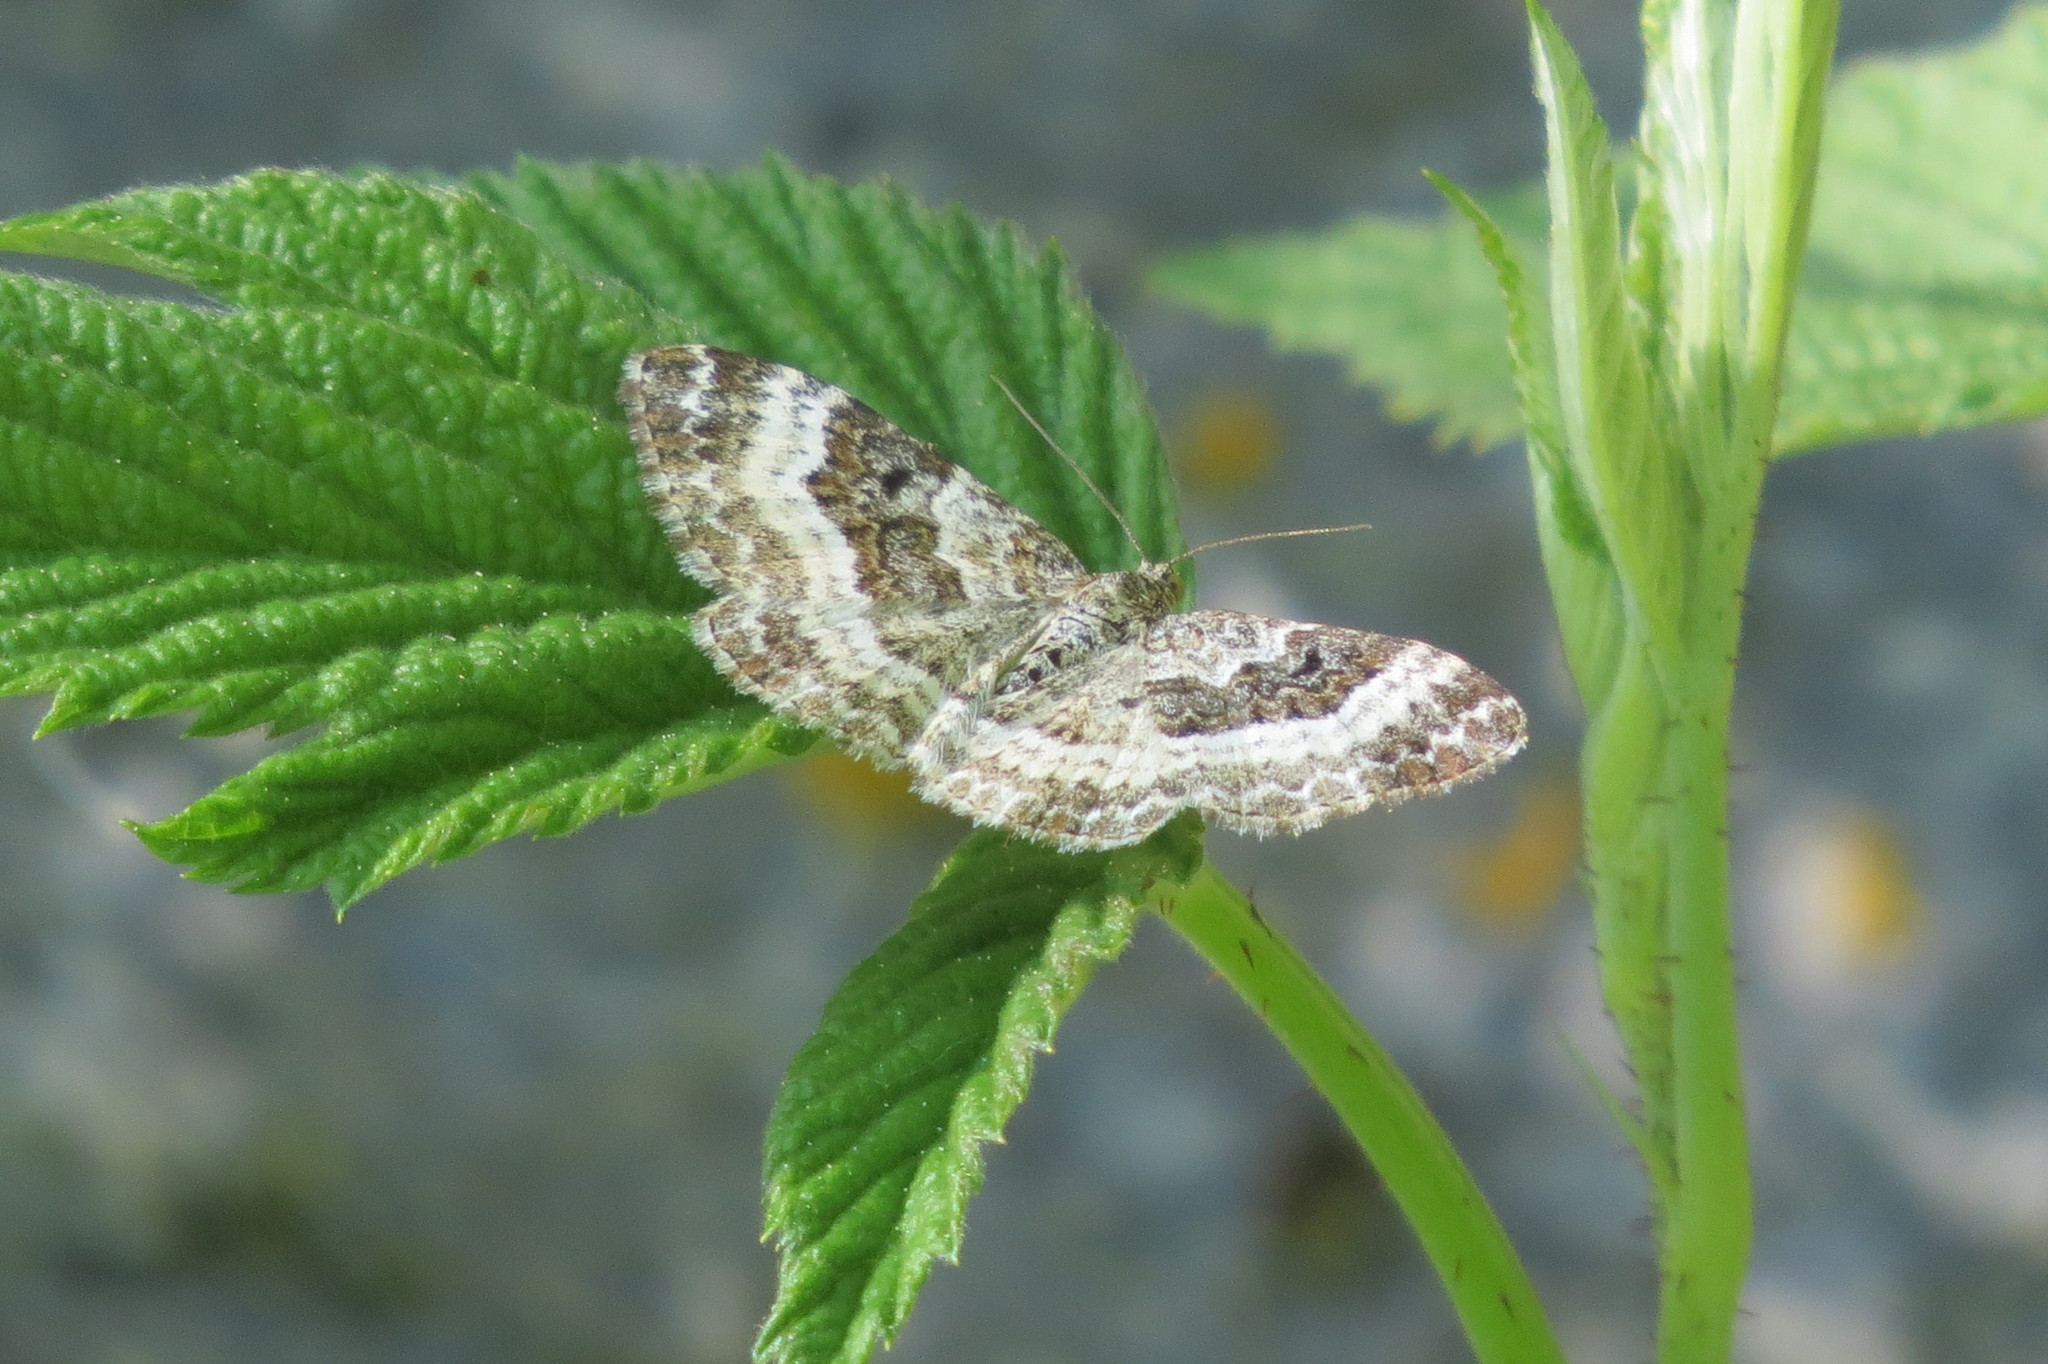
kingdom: Animalia
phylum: Arthropoda
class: Insecta
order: Lepidoptera
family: Geometridae
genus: Epirrhoe
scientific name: Epirrhoe alternata
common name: Common carpet
